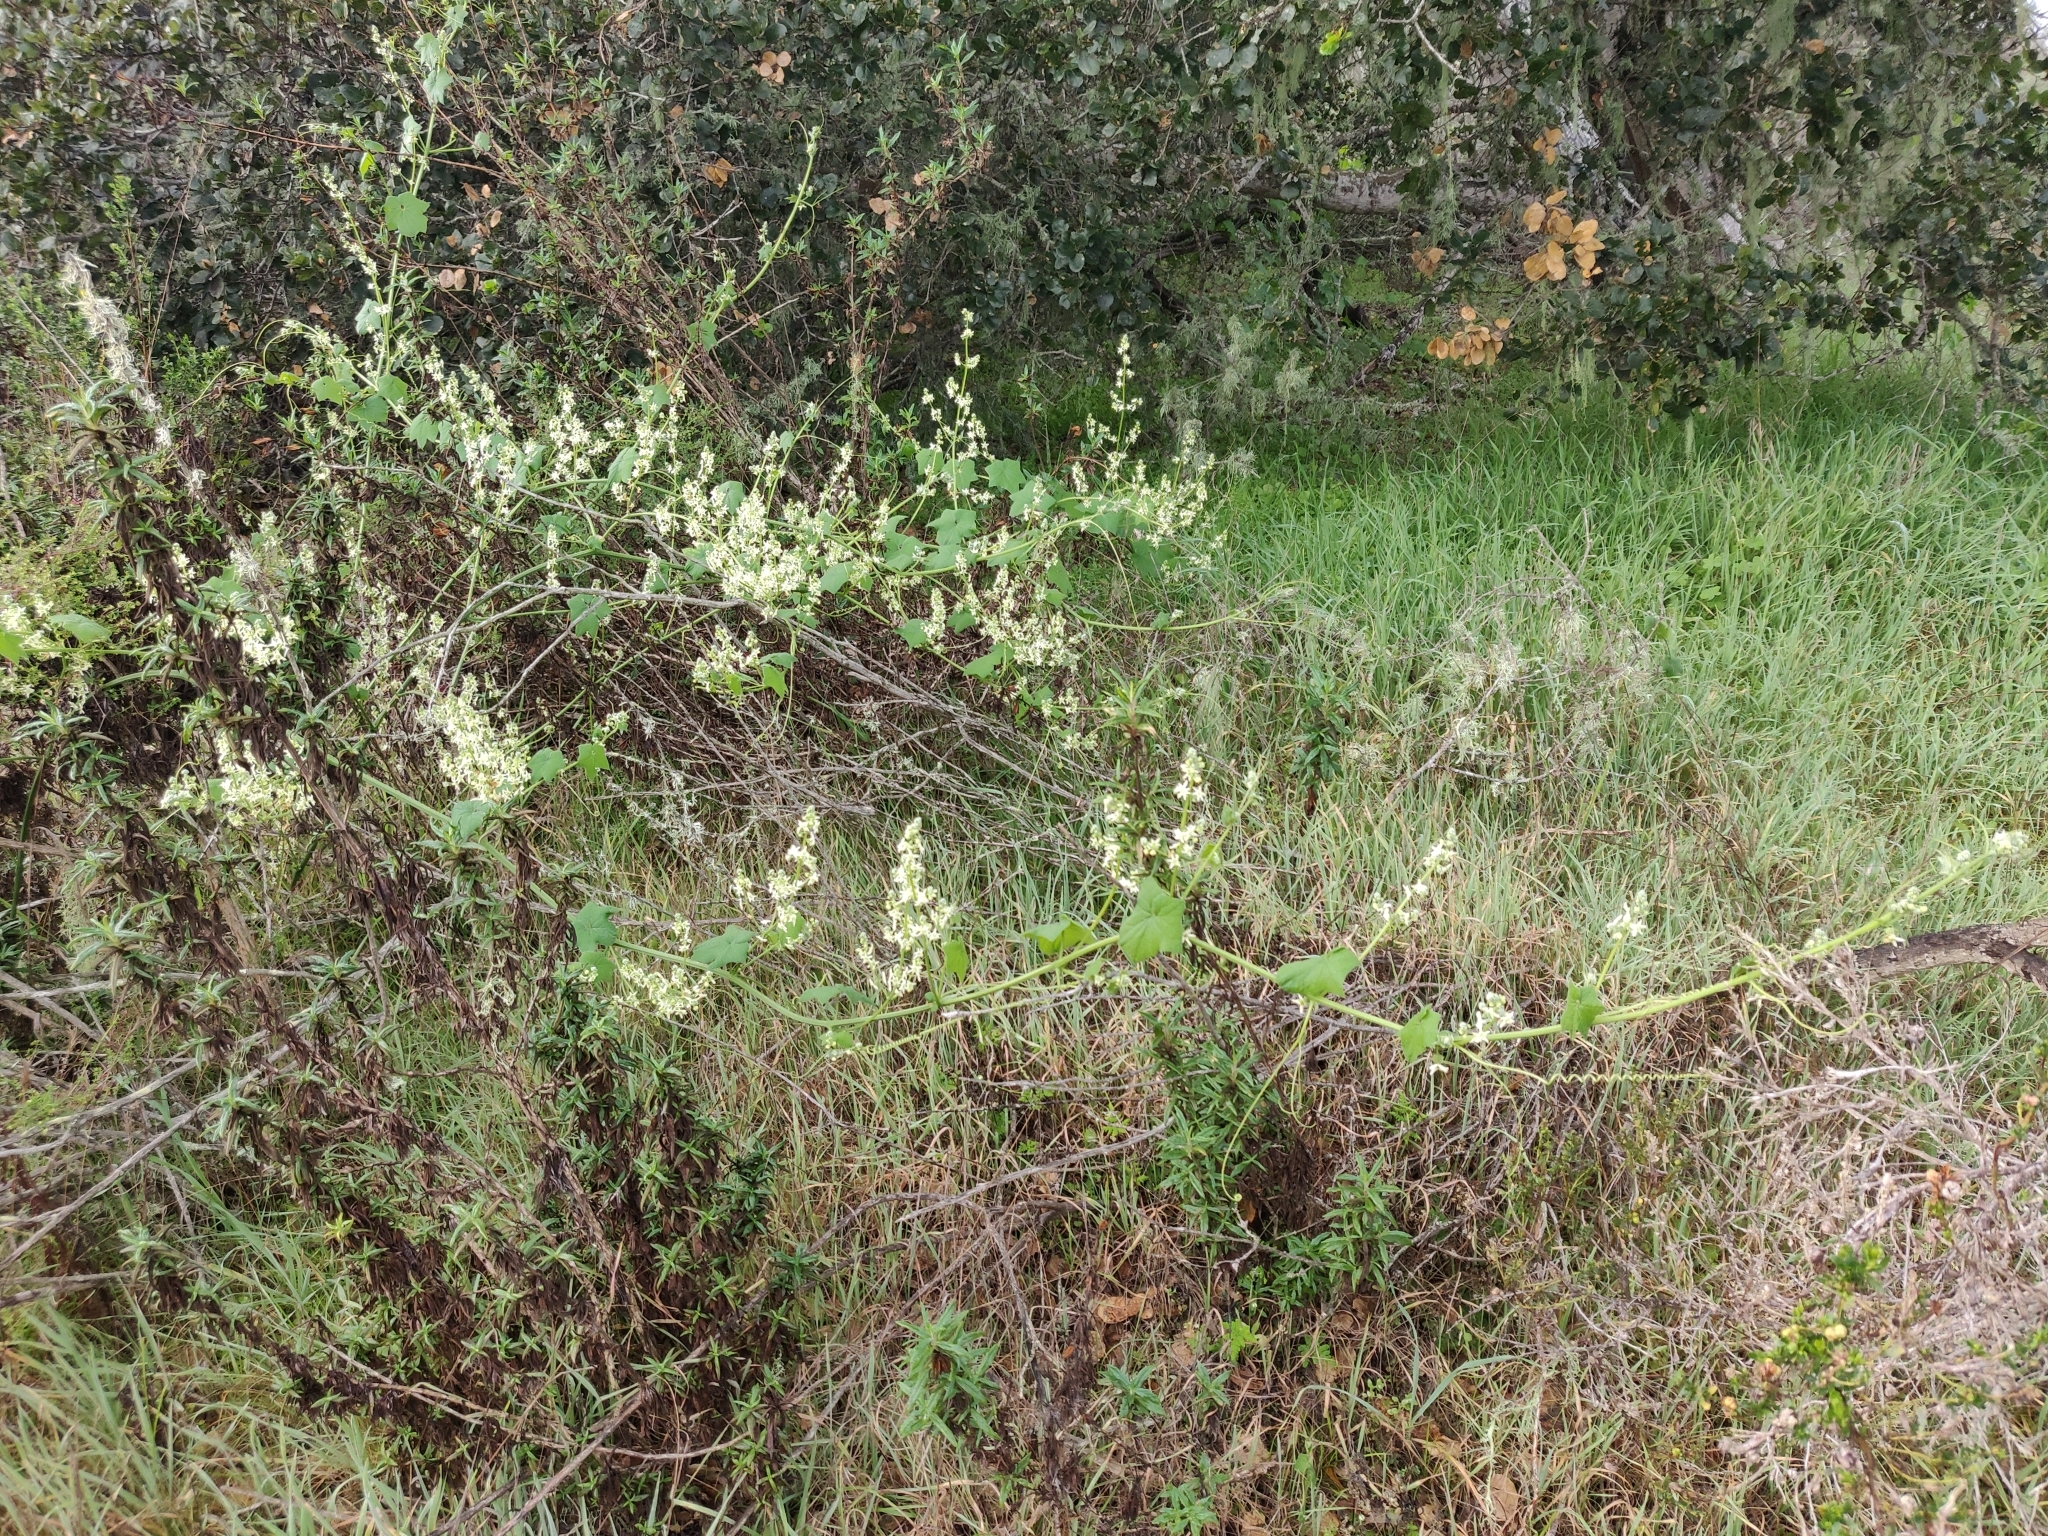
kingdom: Plantae
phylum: Tracheophyta
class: Magnoliopsida
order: Cucurbitales
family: Cucurbitaceae
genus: Marah
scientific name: Marah fabacea
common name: California manroot
